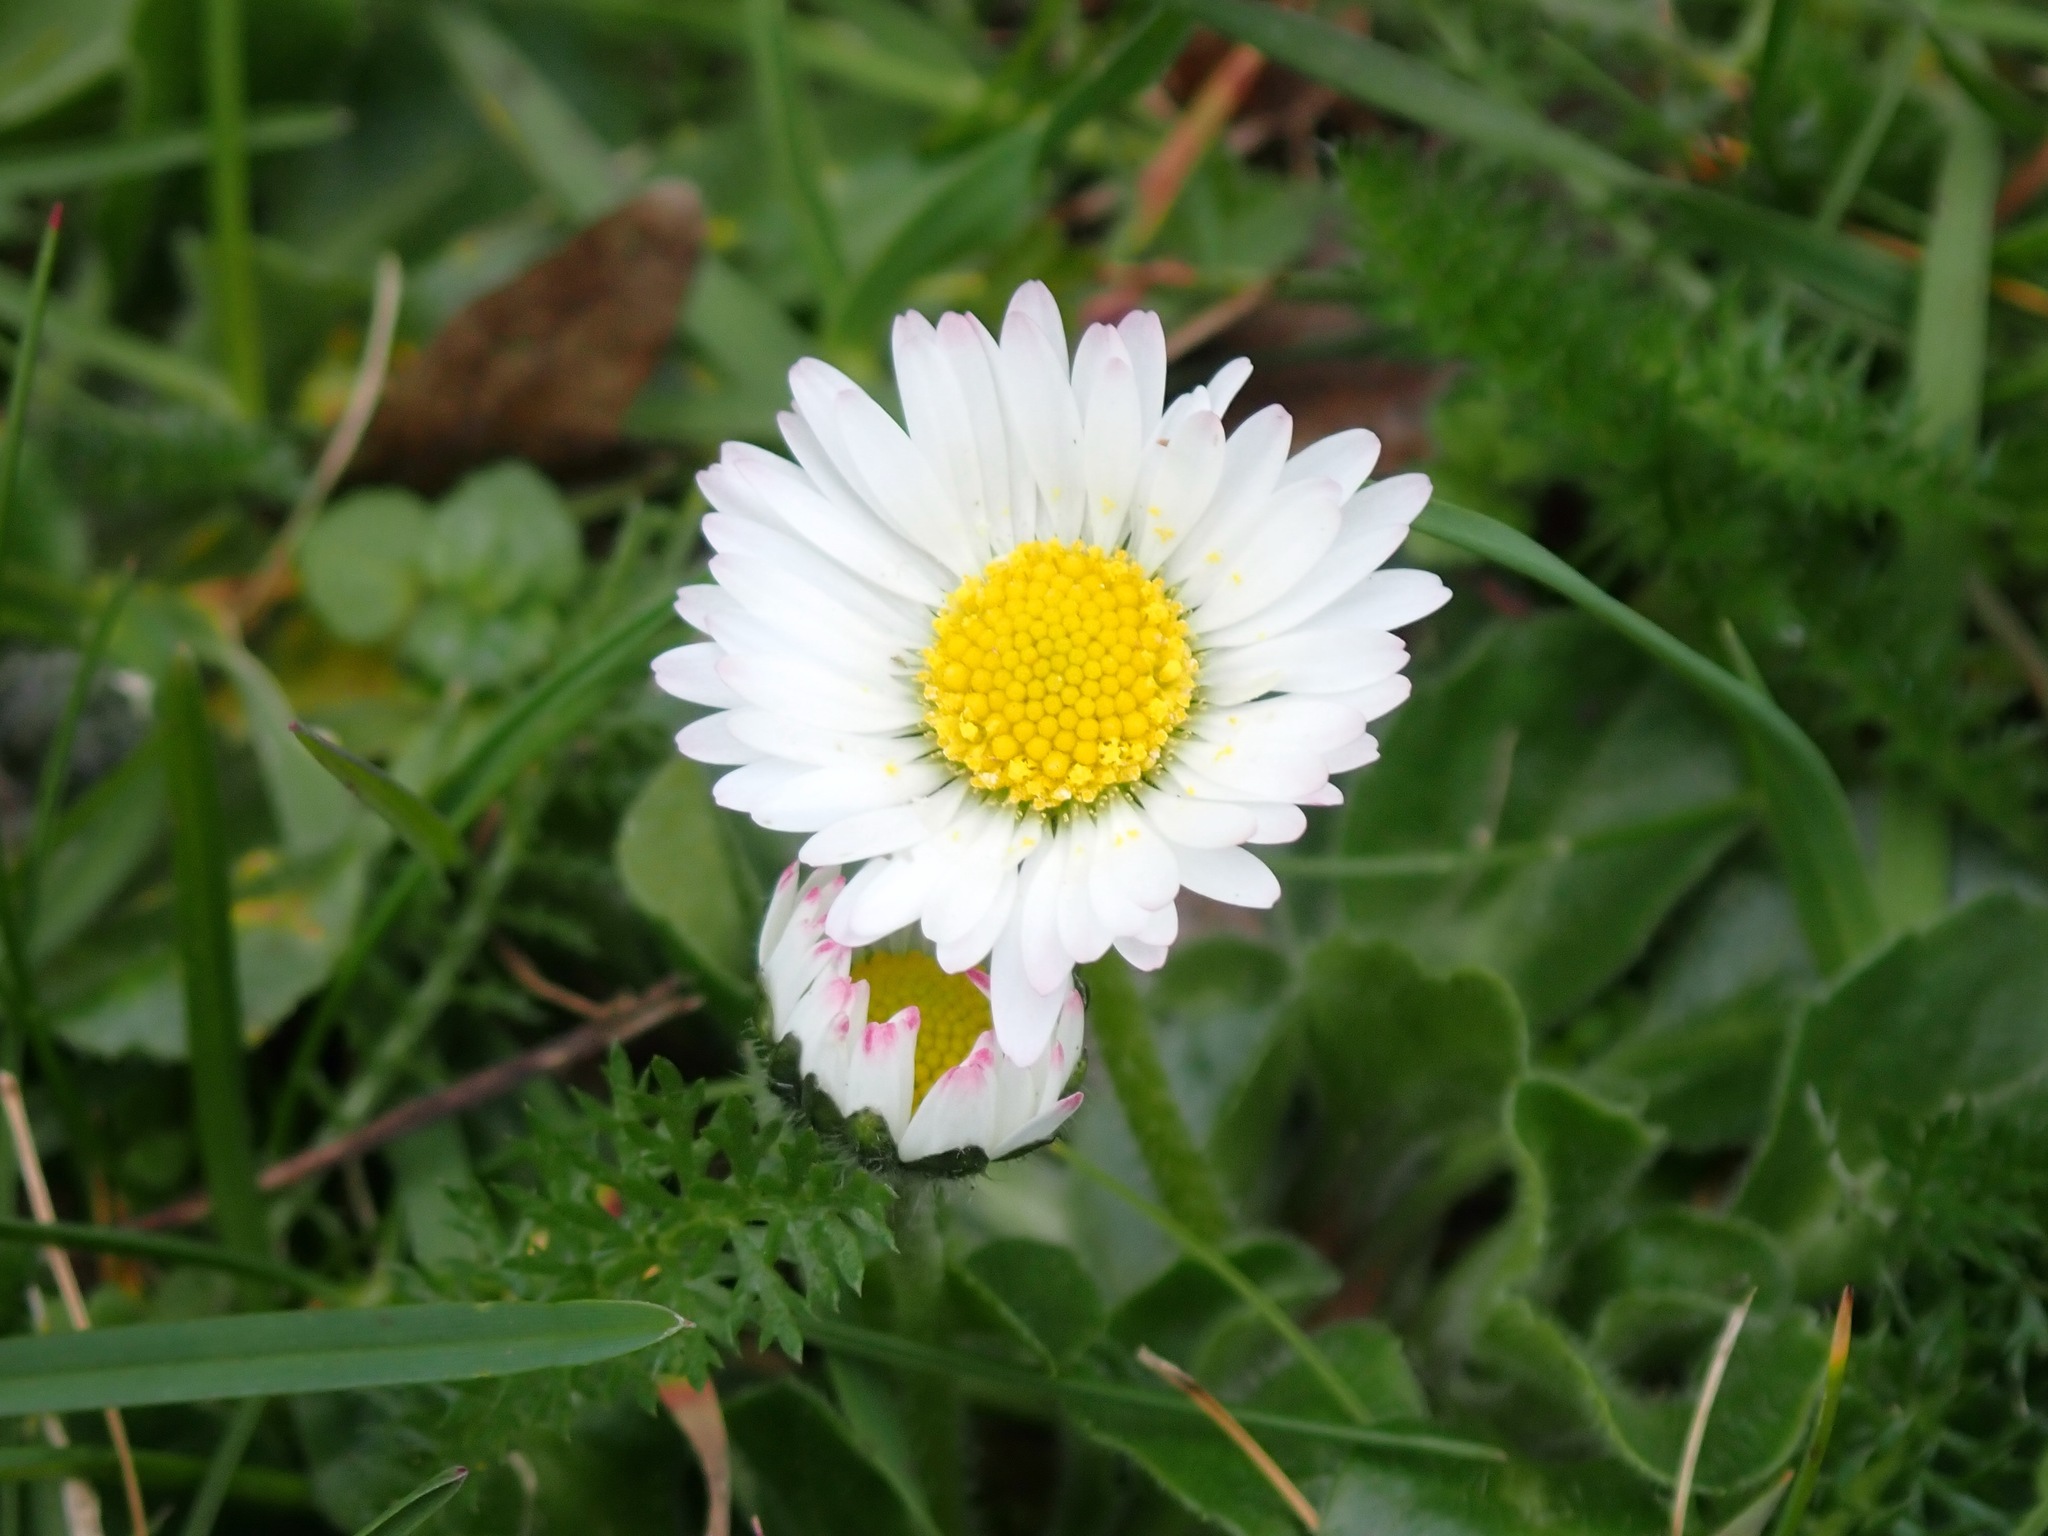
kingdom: Plantae
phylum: Tracheophyta
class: Magnoliopsida
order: Asterales
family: Asteraceae
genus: Bellis
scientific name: Bellis perennis
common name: Lawndaisy
